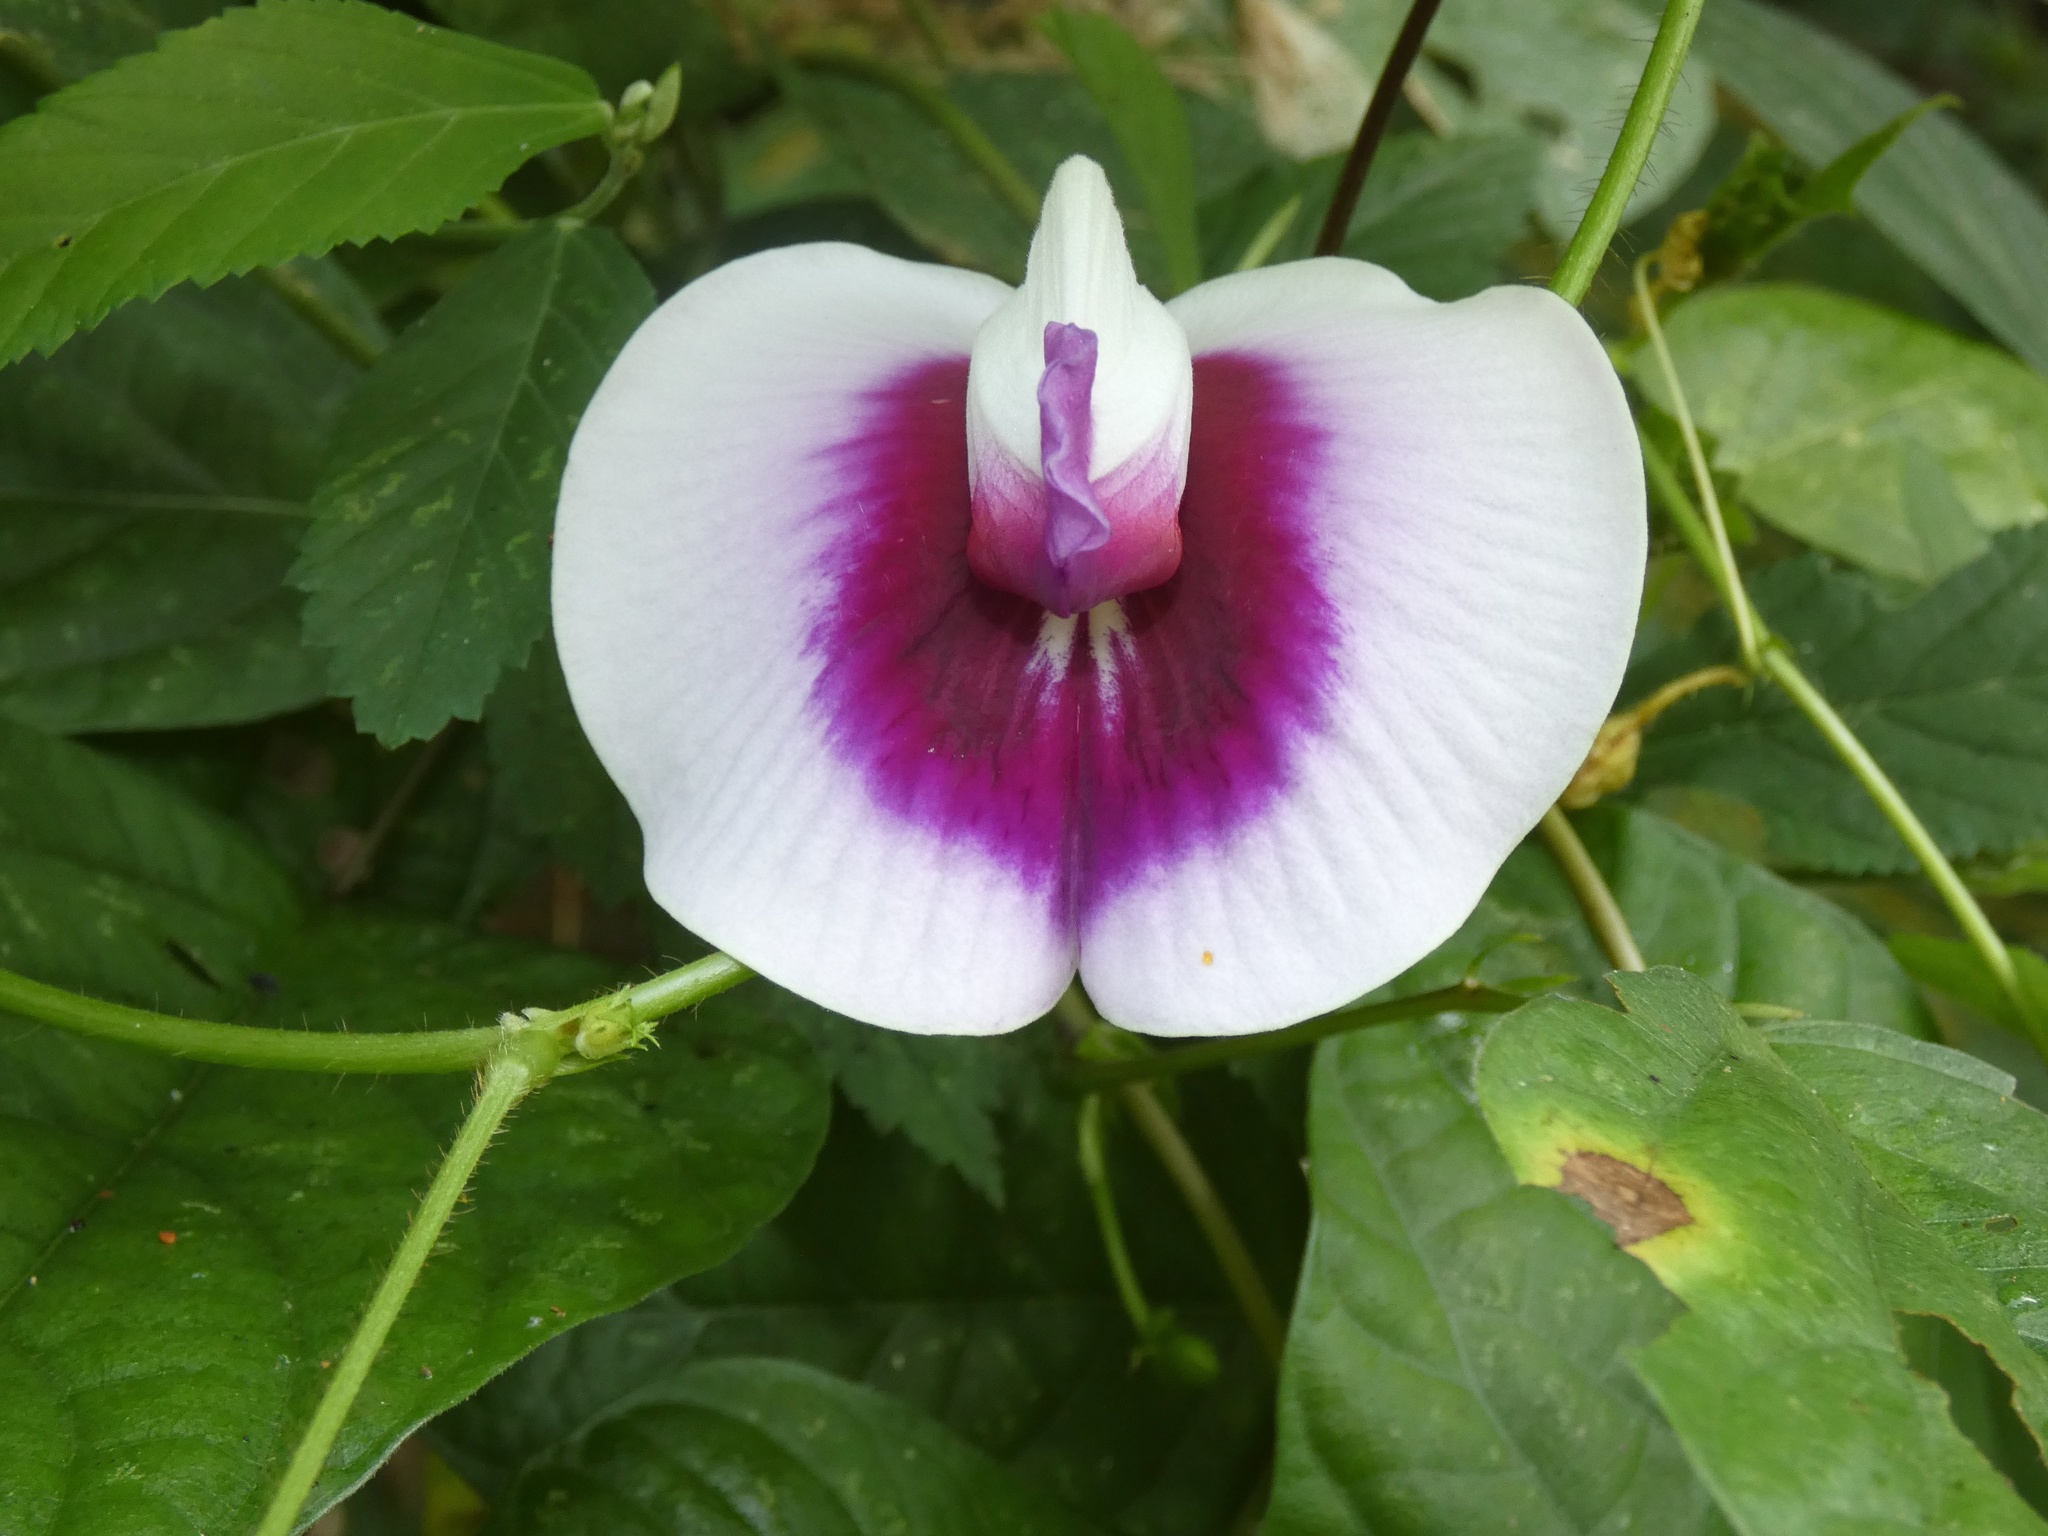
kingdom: Plantae
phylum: Tracheophyta
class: Magnoliopsida
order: Fabales
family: Fabaceae
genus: Centrosema
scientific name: Centrosema plumieri
